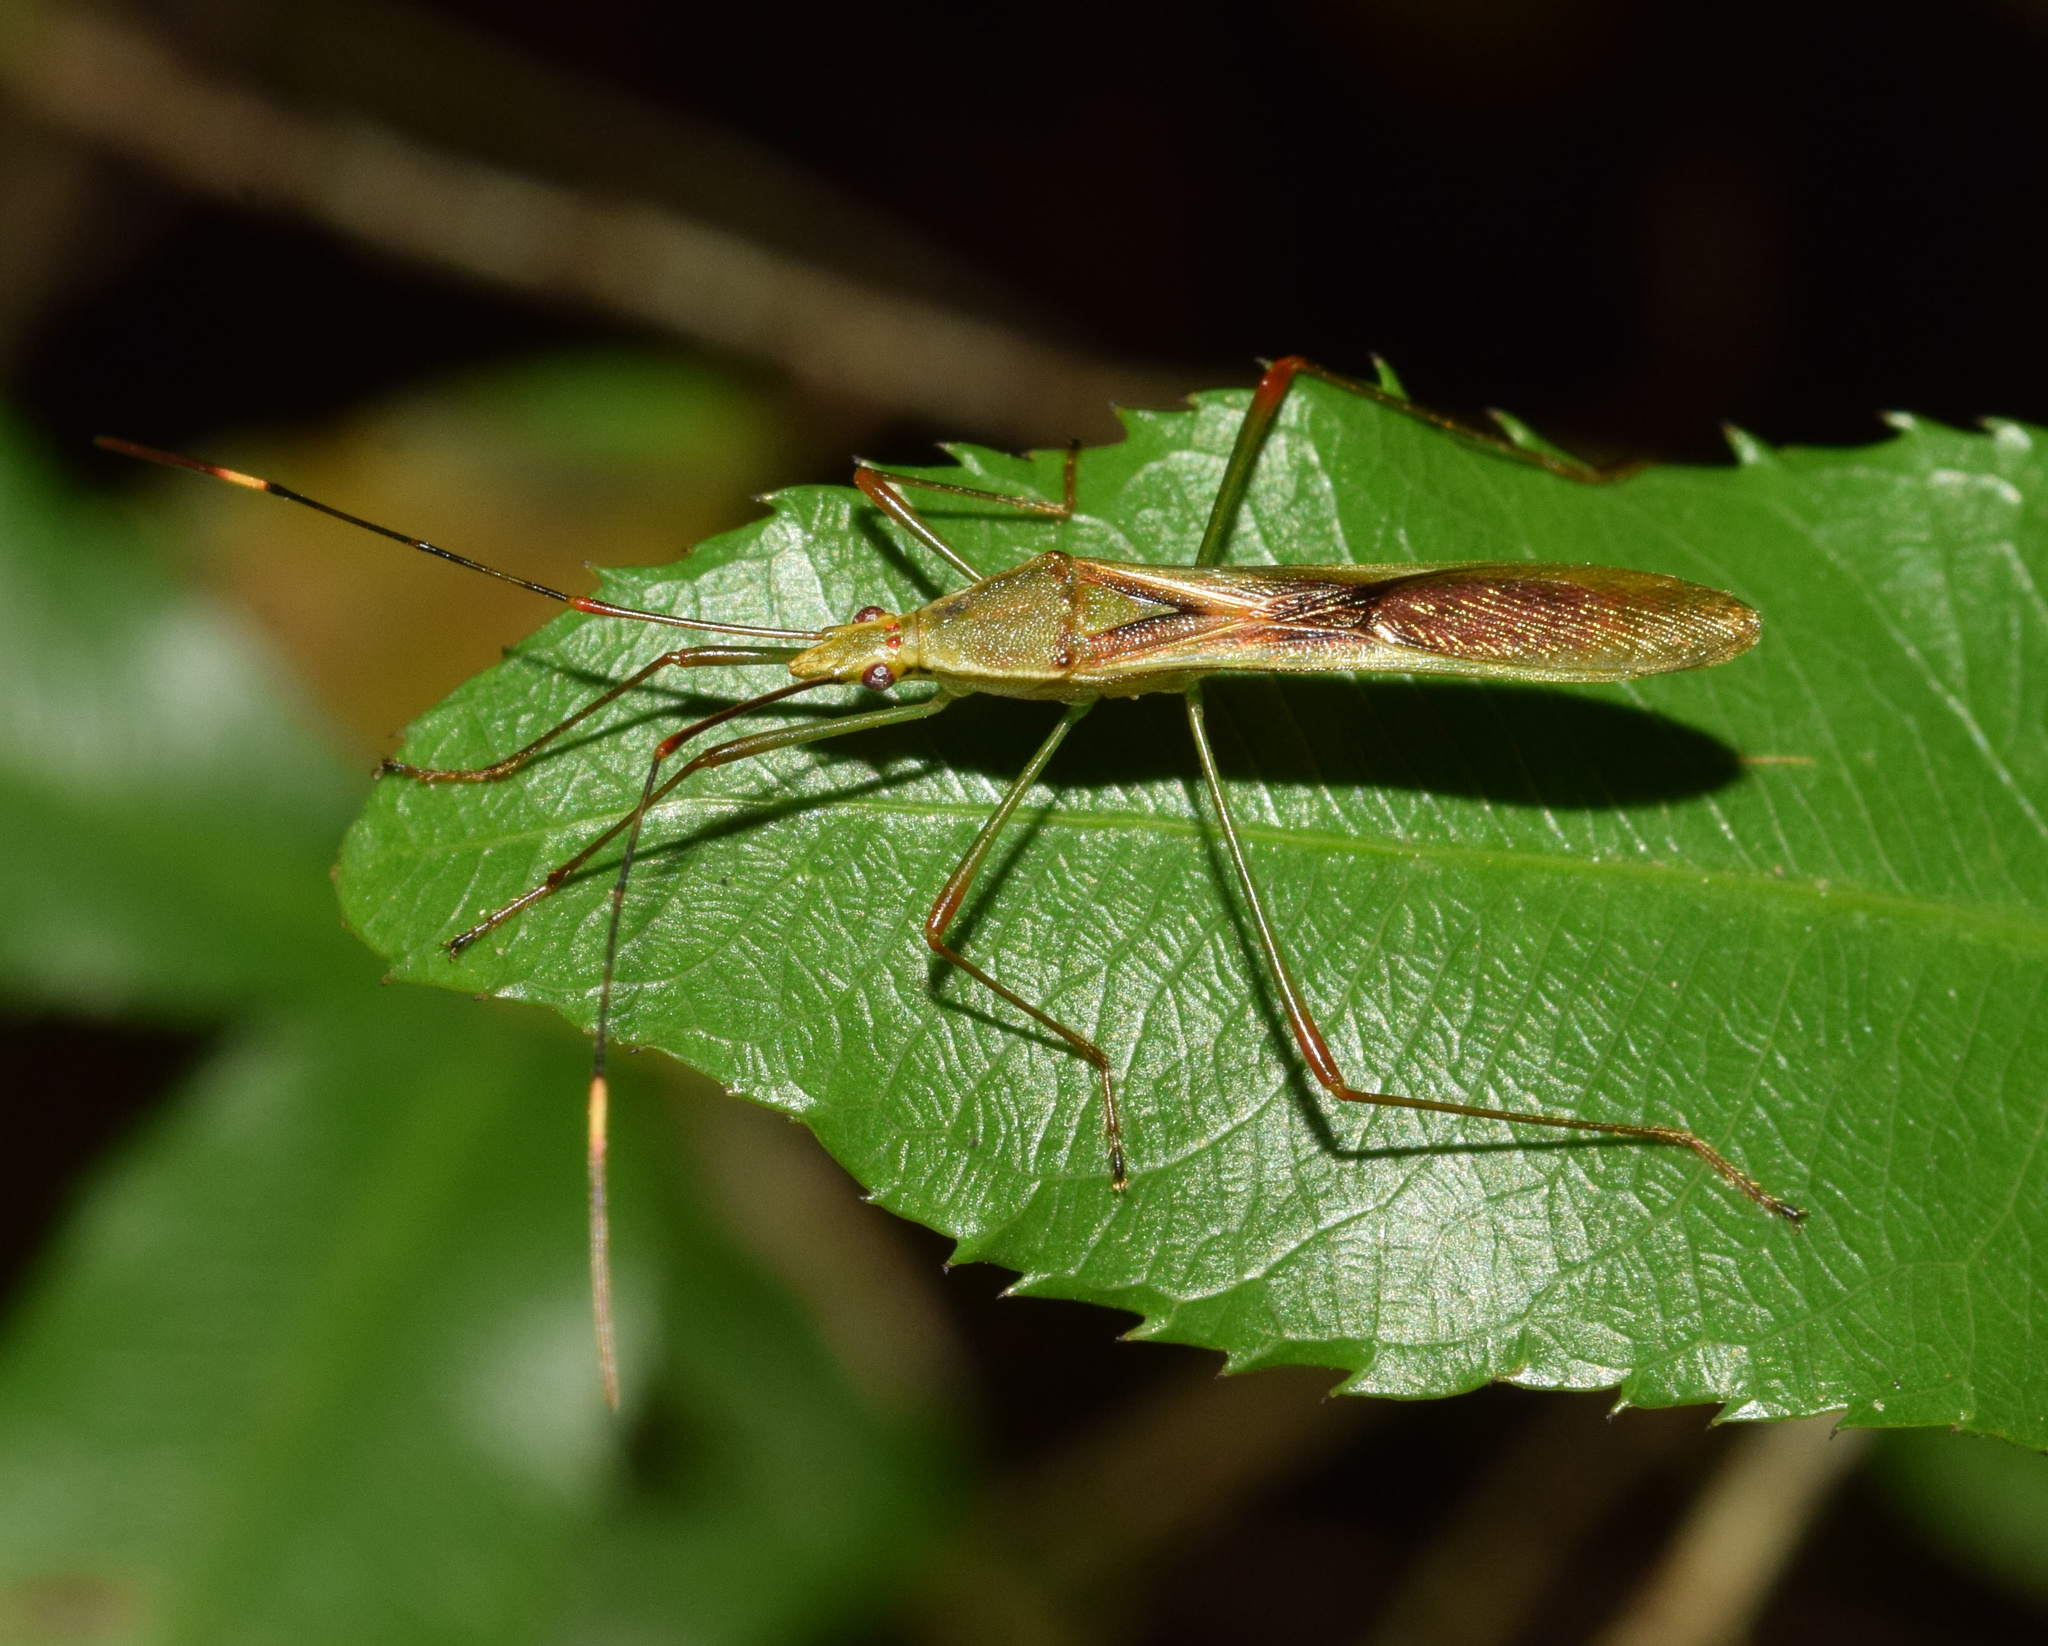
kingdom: Animalia
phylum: Arthropoda
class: Insecta
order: Hemiptera
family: Alydidae
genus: Stenocoris
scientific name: Stenocoris apicalis
